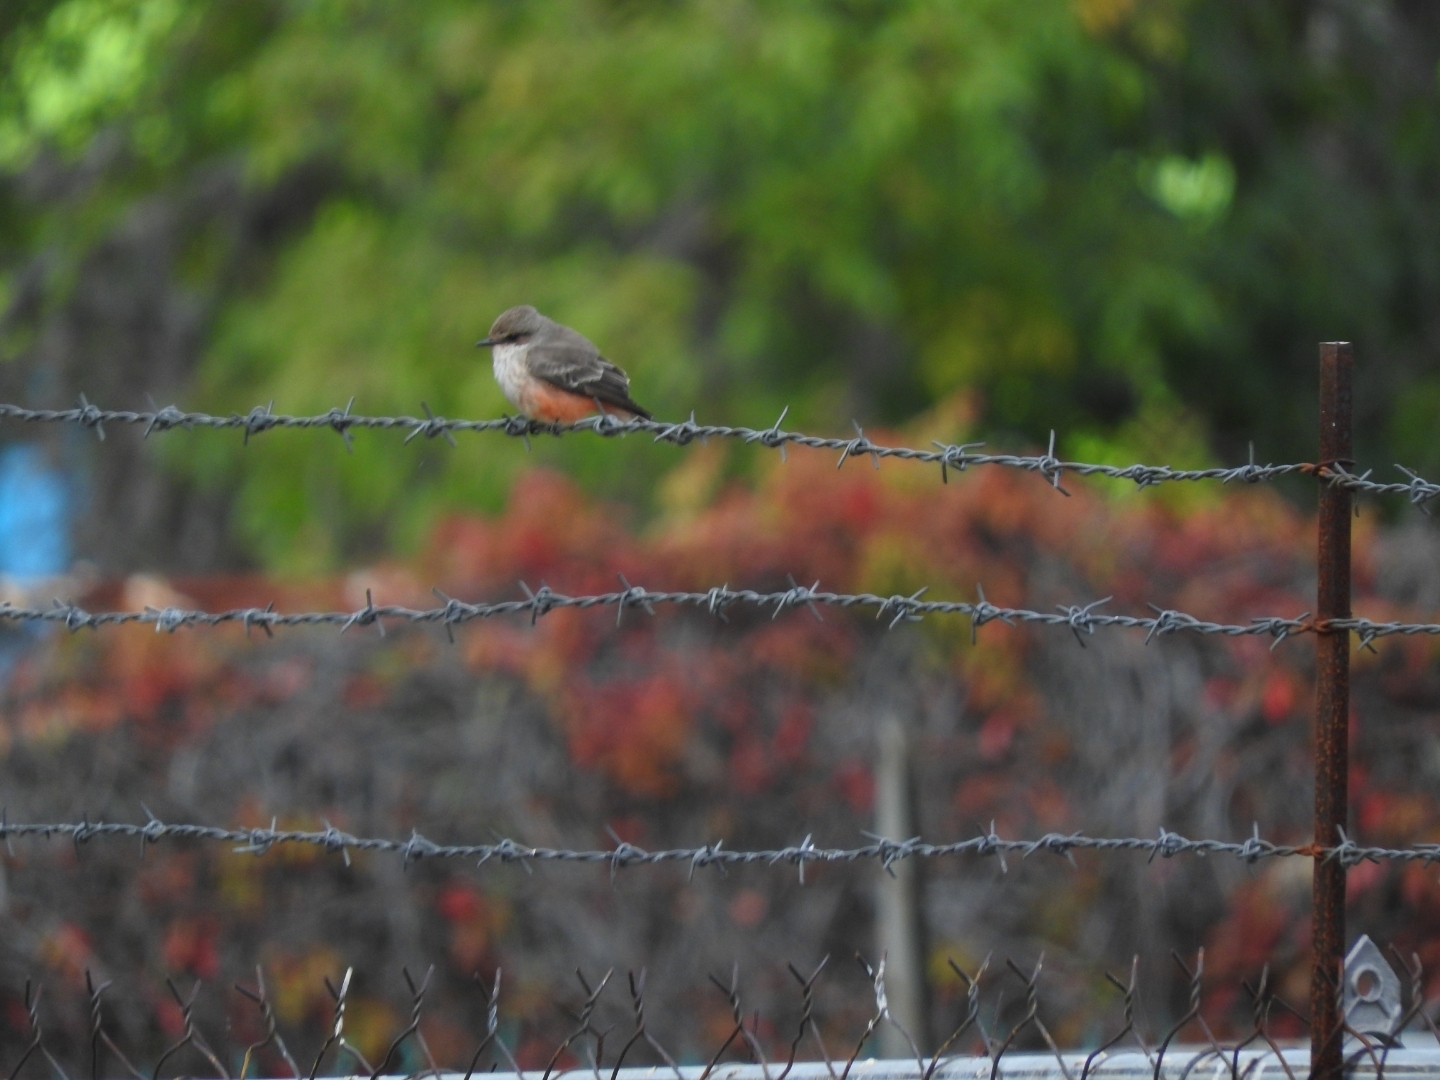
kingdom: Animalia
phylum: Chordata
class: Aves
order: Passeriformes
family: Tyrannidae
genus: Pyrocephalus
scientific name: Pyrocephalus rubinus
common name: Vermilion flycatcher
